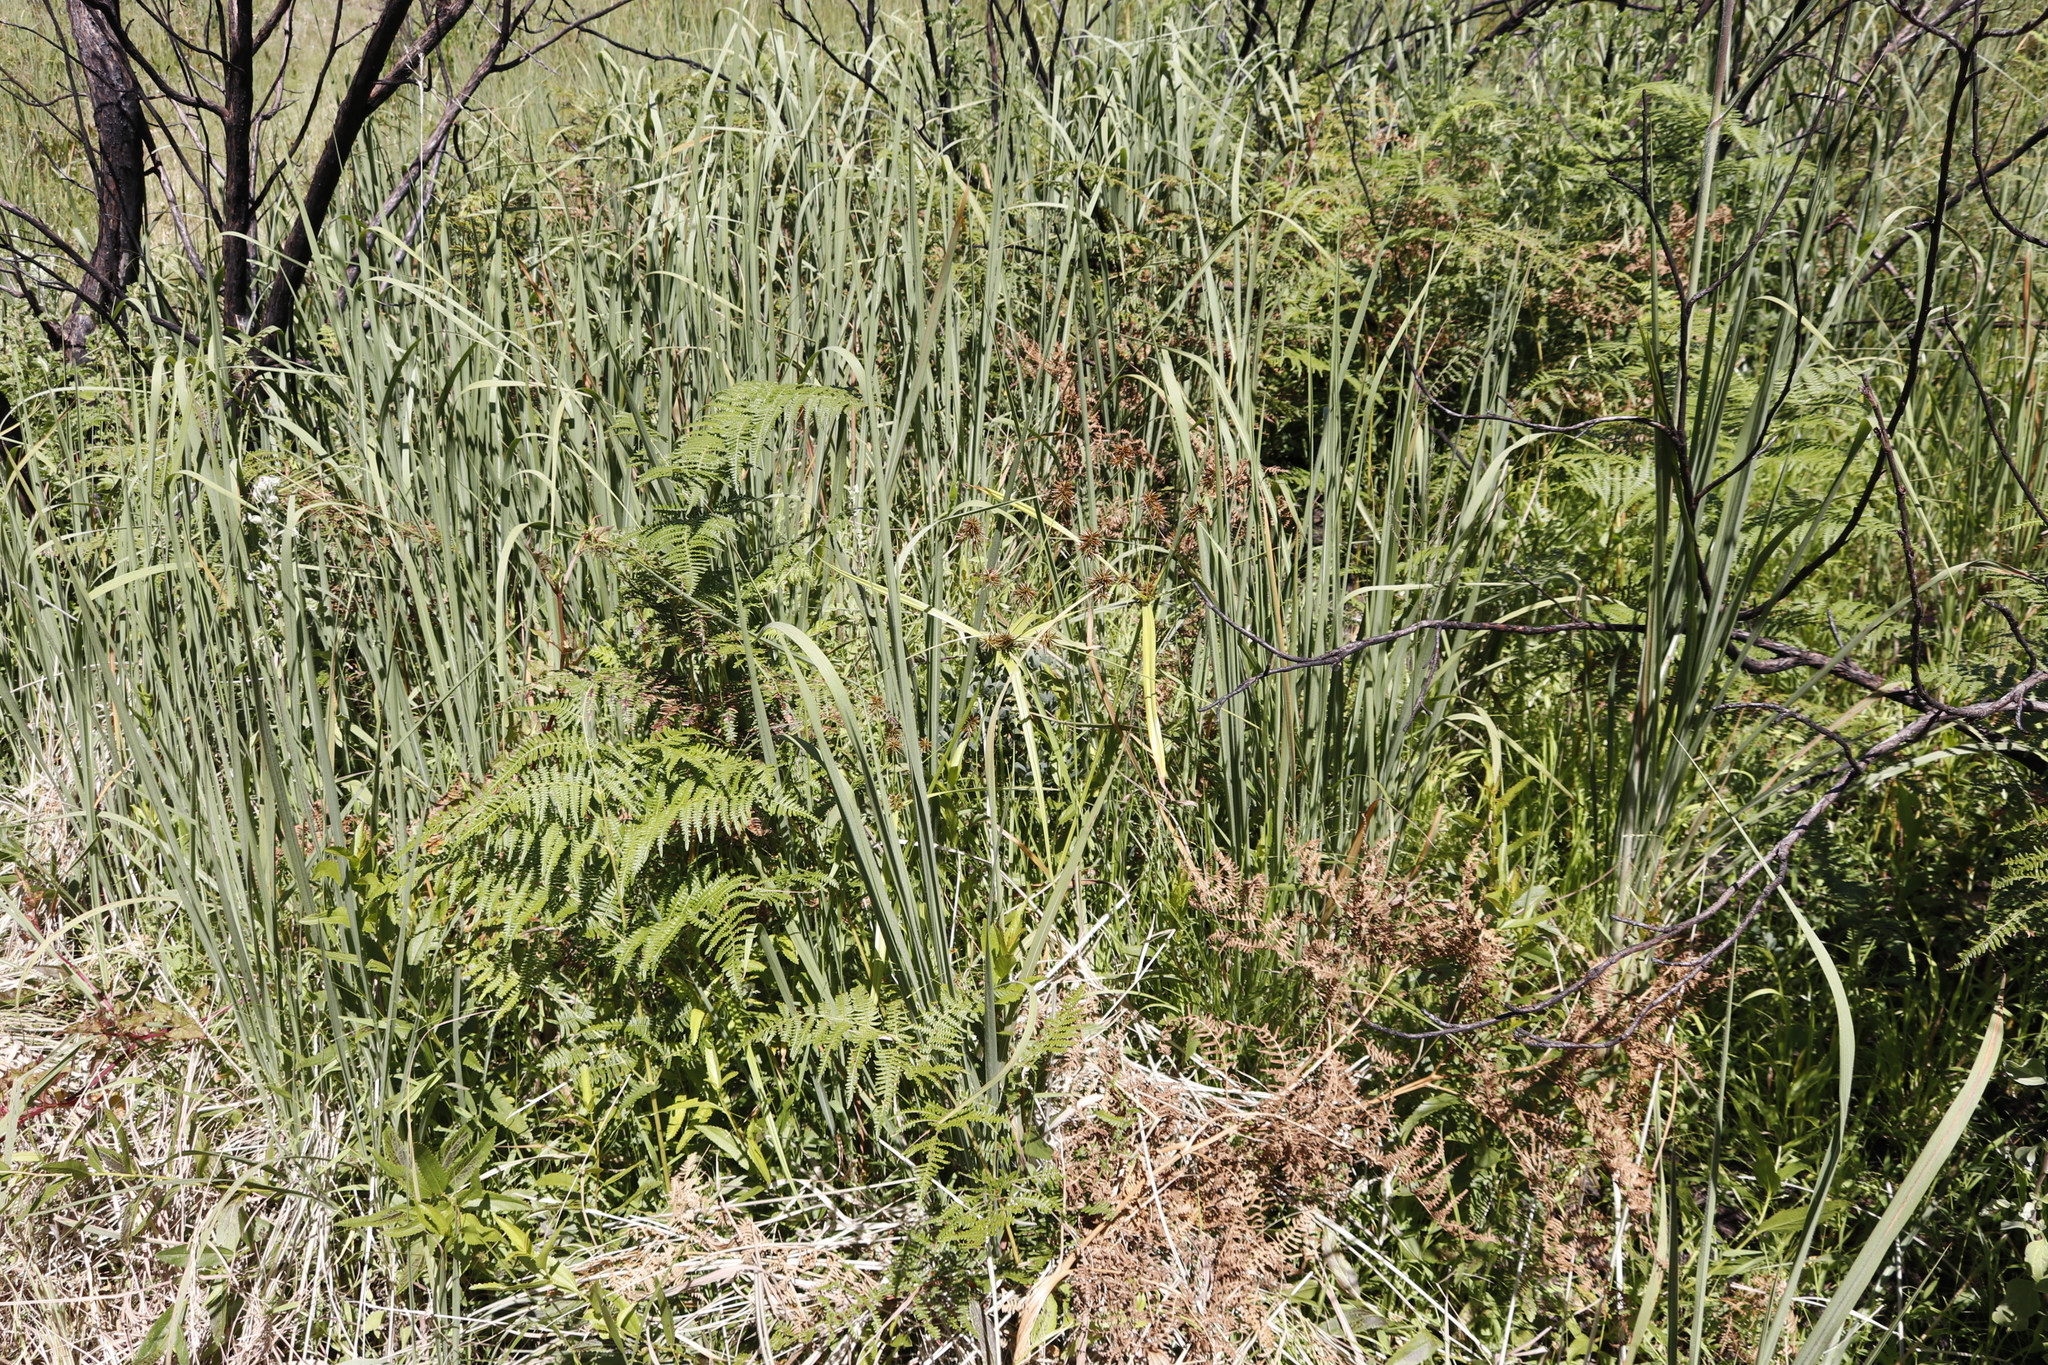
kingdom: Plantae
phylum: Tracheophyta
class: Liliopsida
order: Poales
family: Cyperaceae
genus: Cyperus
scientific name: Cyperus congestus
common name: Dense flat sedge
